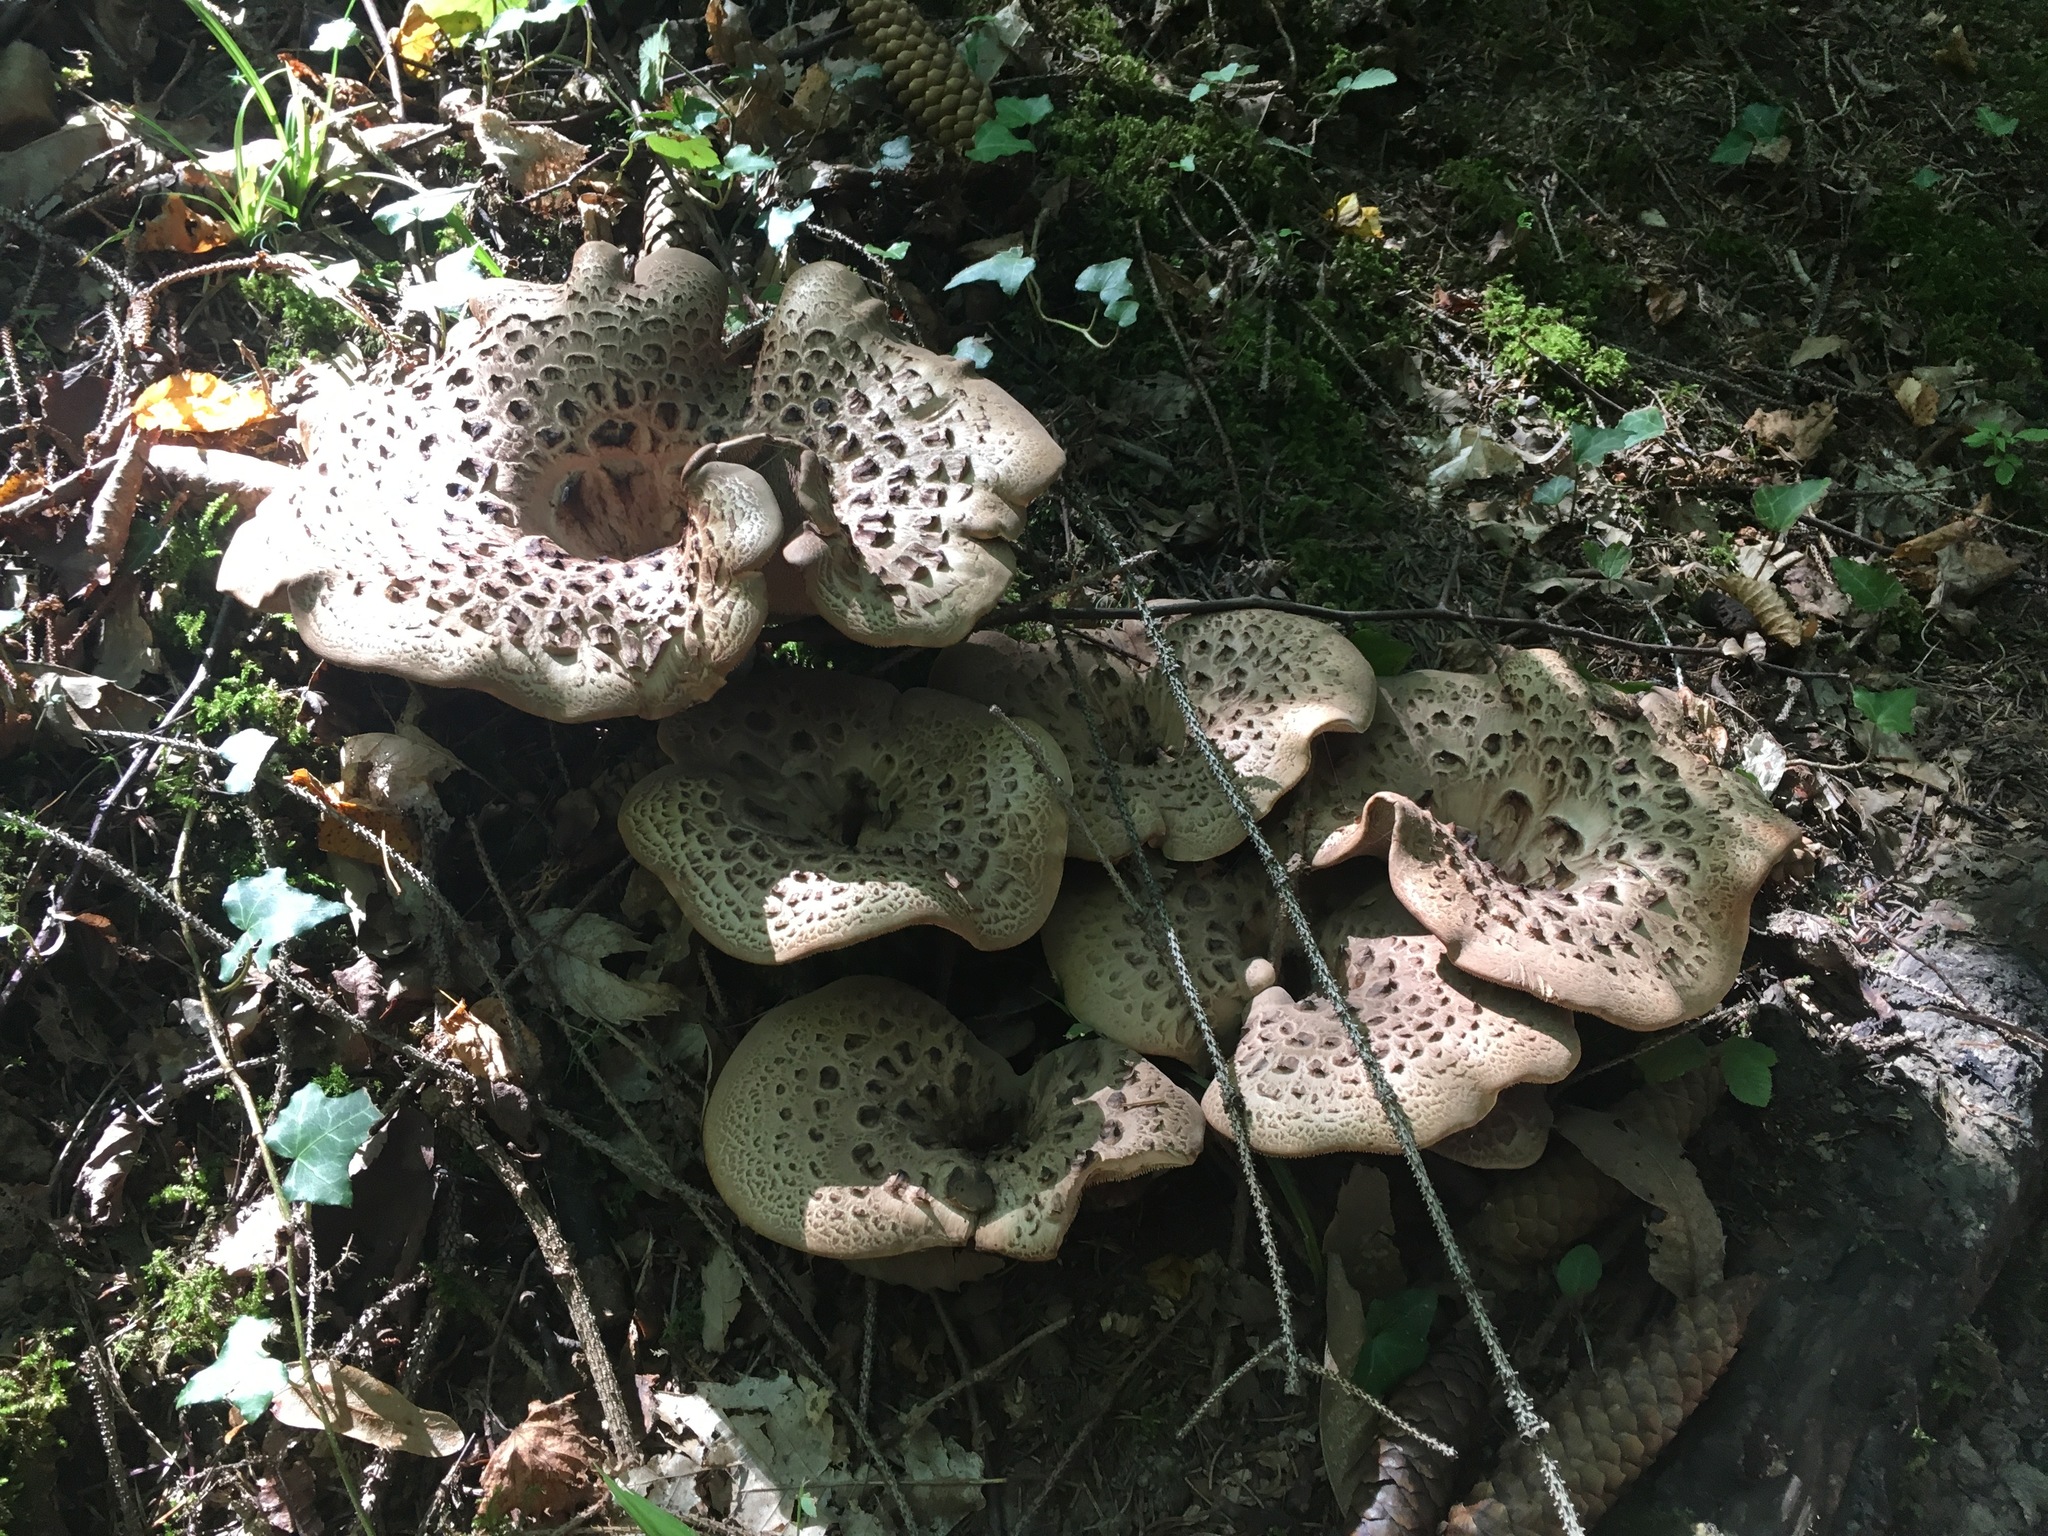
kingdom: Fungi
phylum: Basidiomycota
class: Agaricomycetes
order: Thelephorales
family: Bankeraceae
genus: Sarcodon
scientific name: Sarcodon imbricatus
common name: Shingled hedgehog
